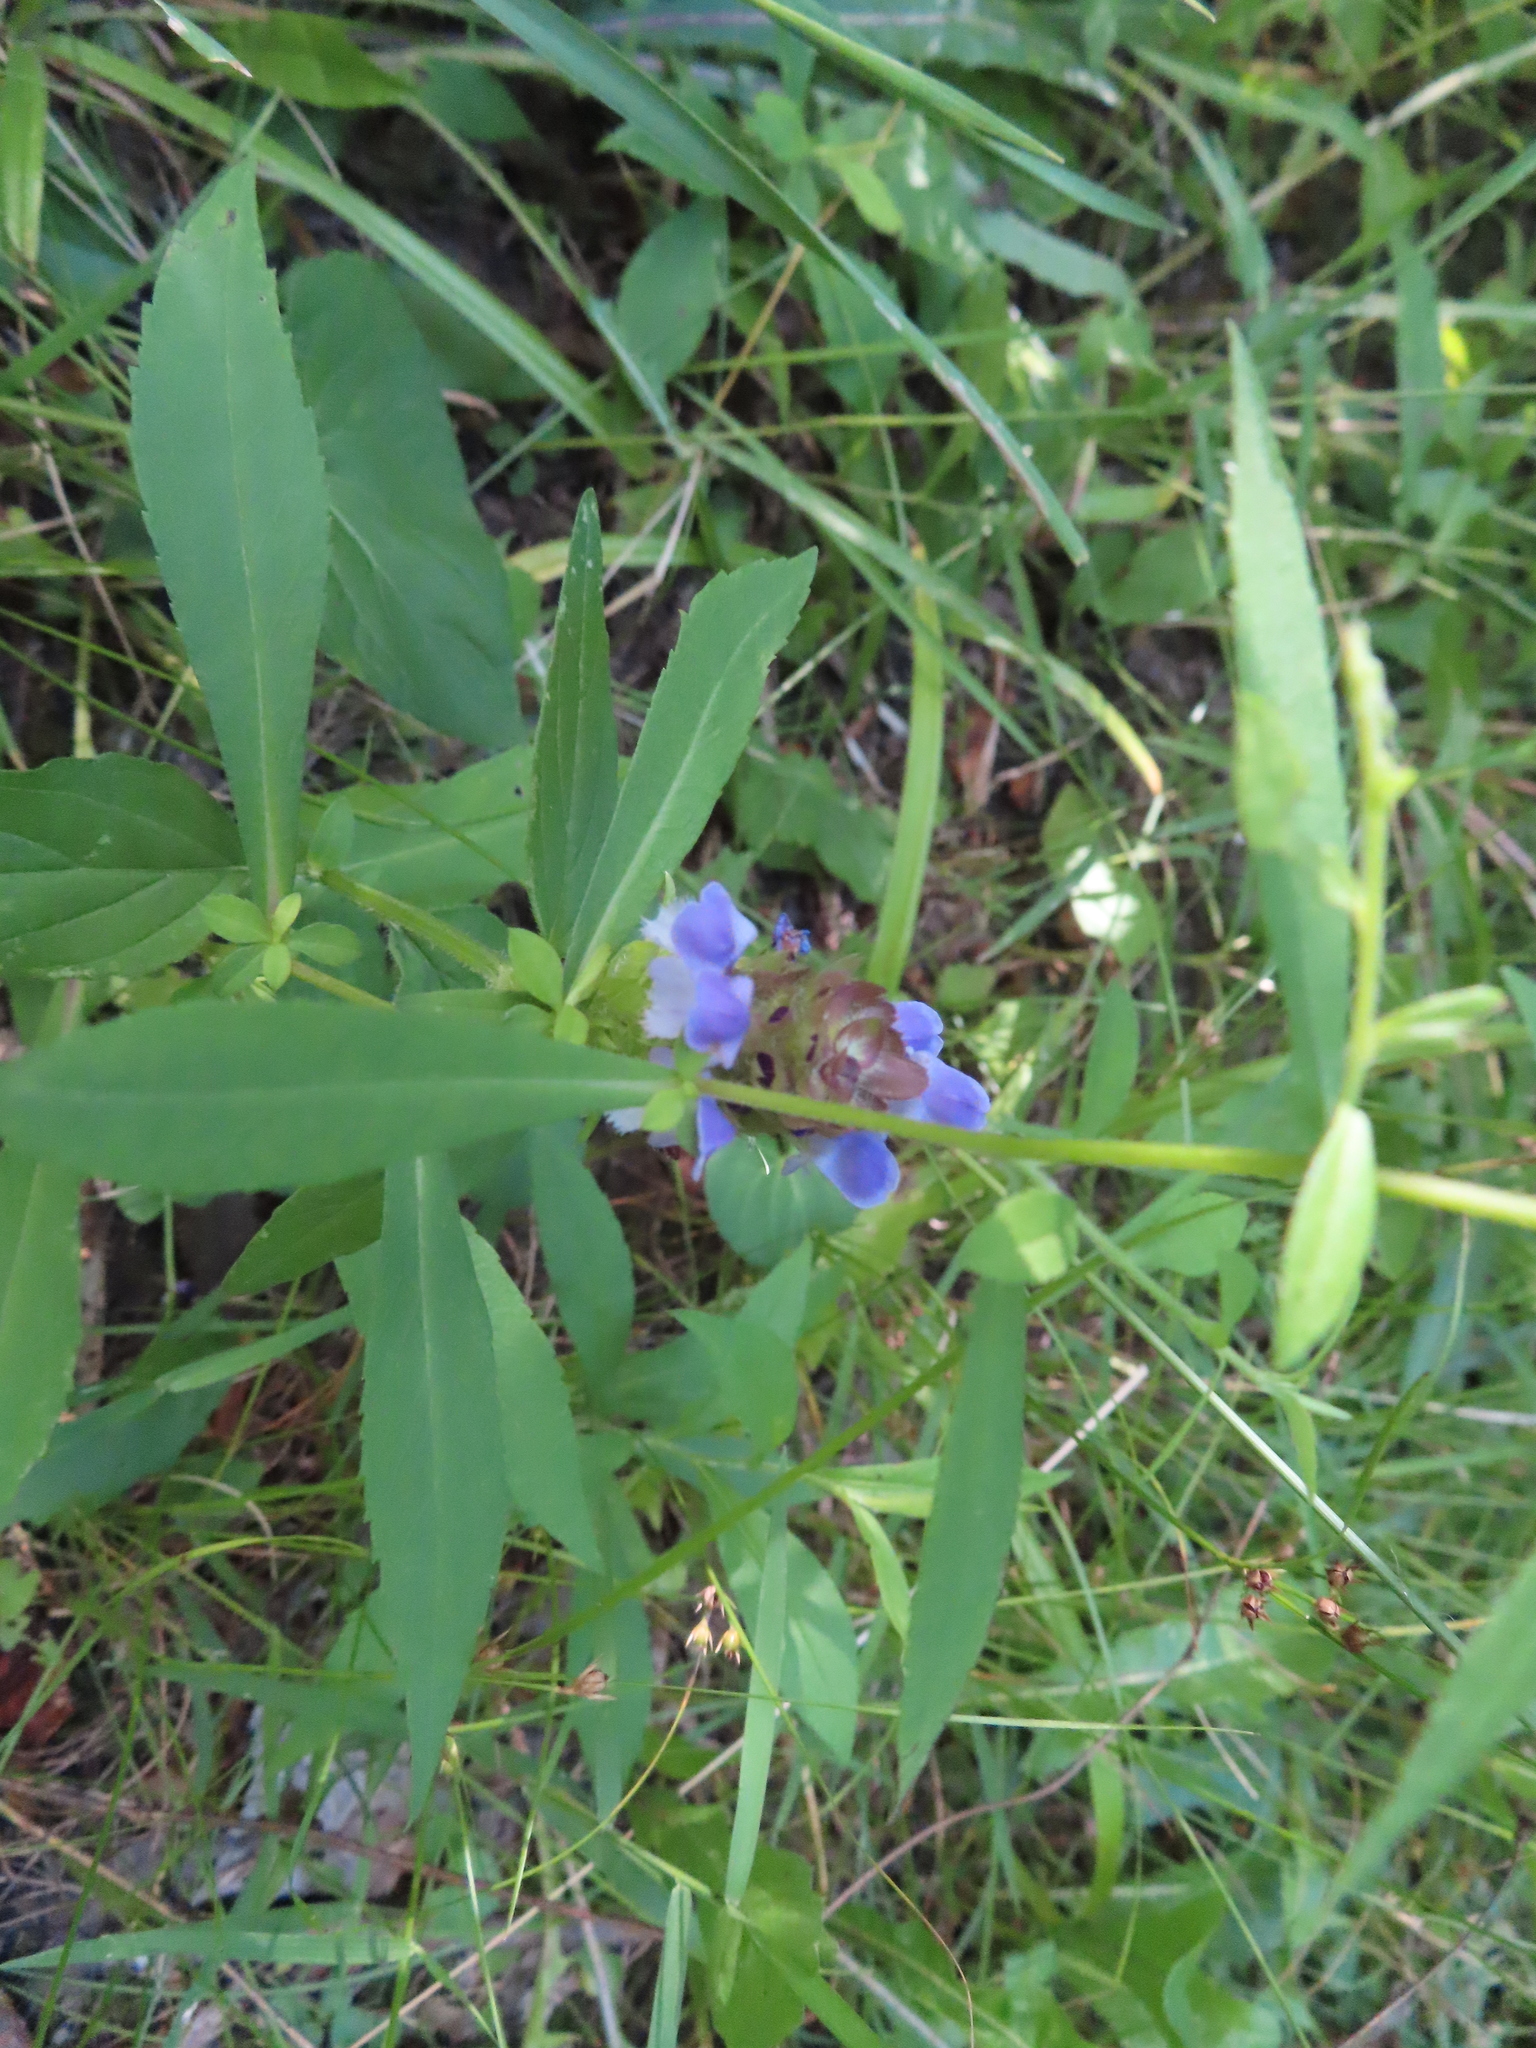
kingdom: Plantae
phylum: Tracheophyta
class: Magnoliopsida
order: Lamiales
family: Lamiaceae
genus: Prunella
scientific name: Prunella vulgaris
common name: Heal-all
